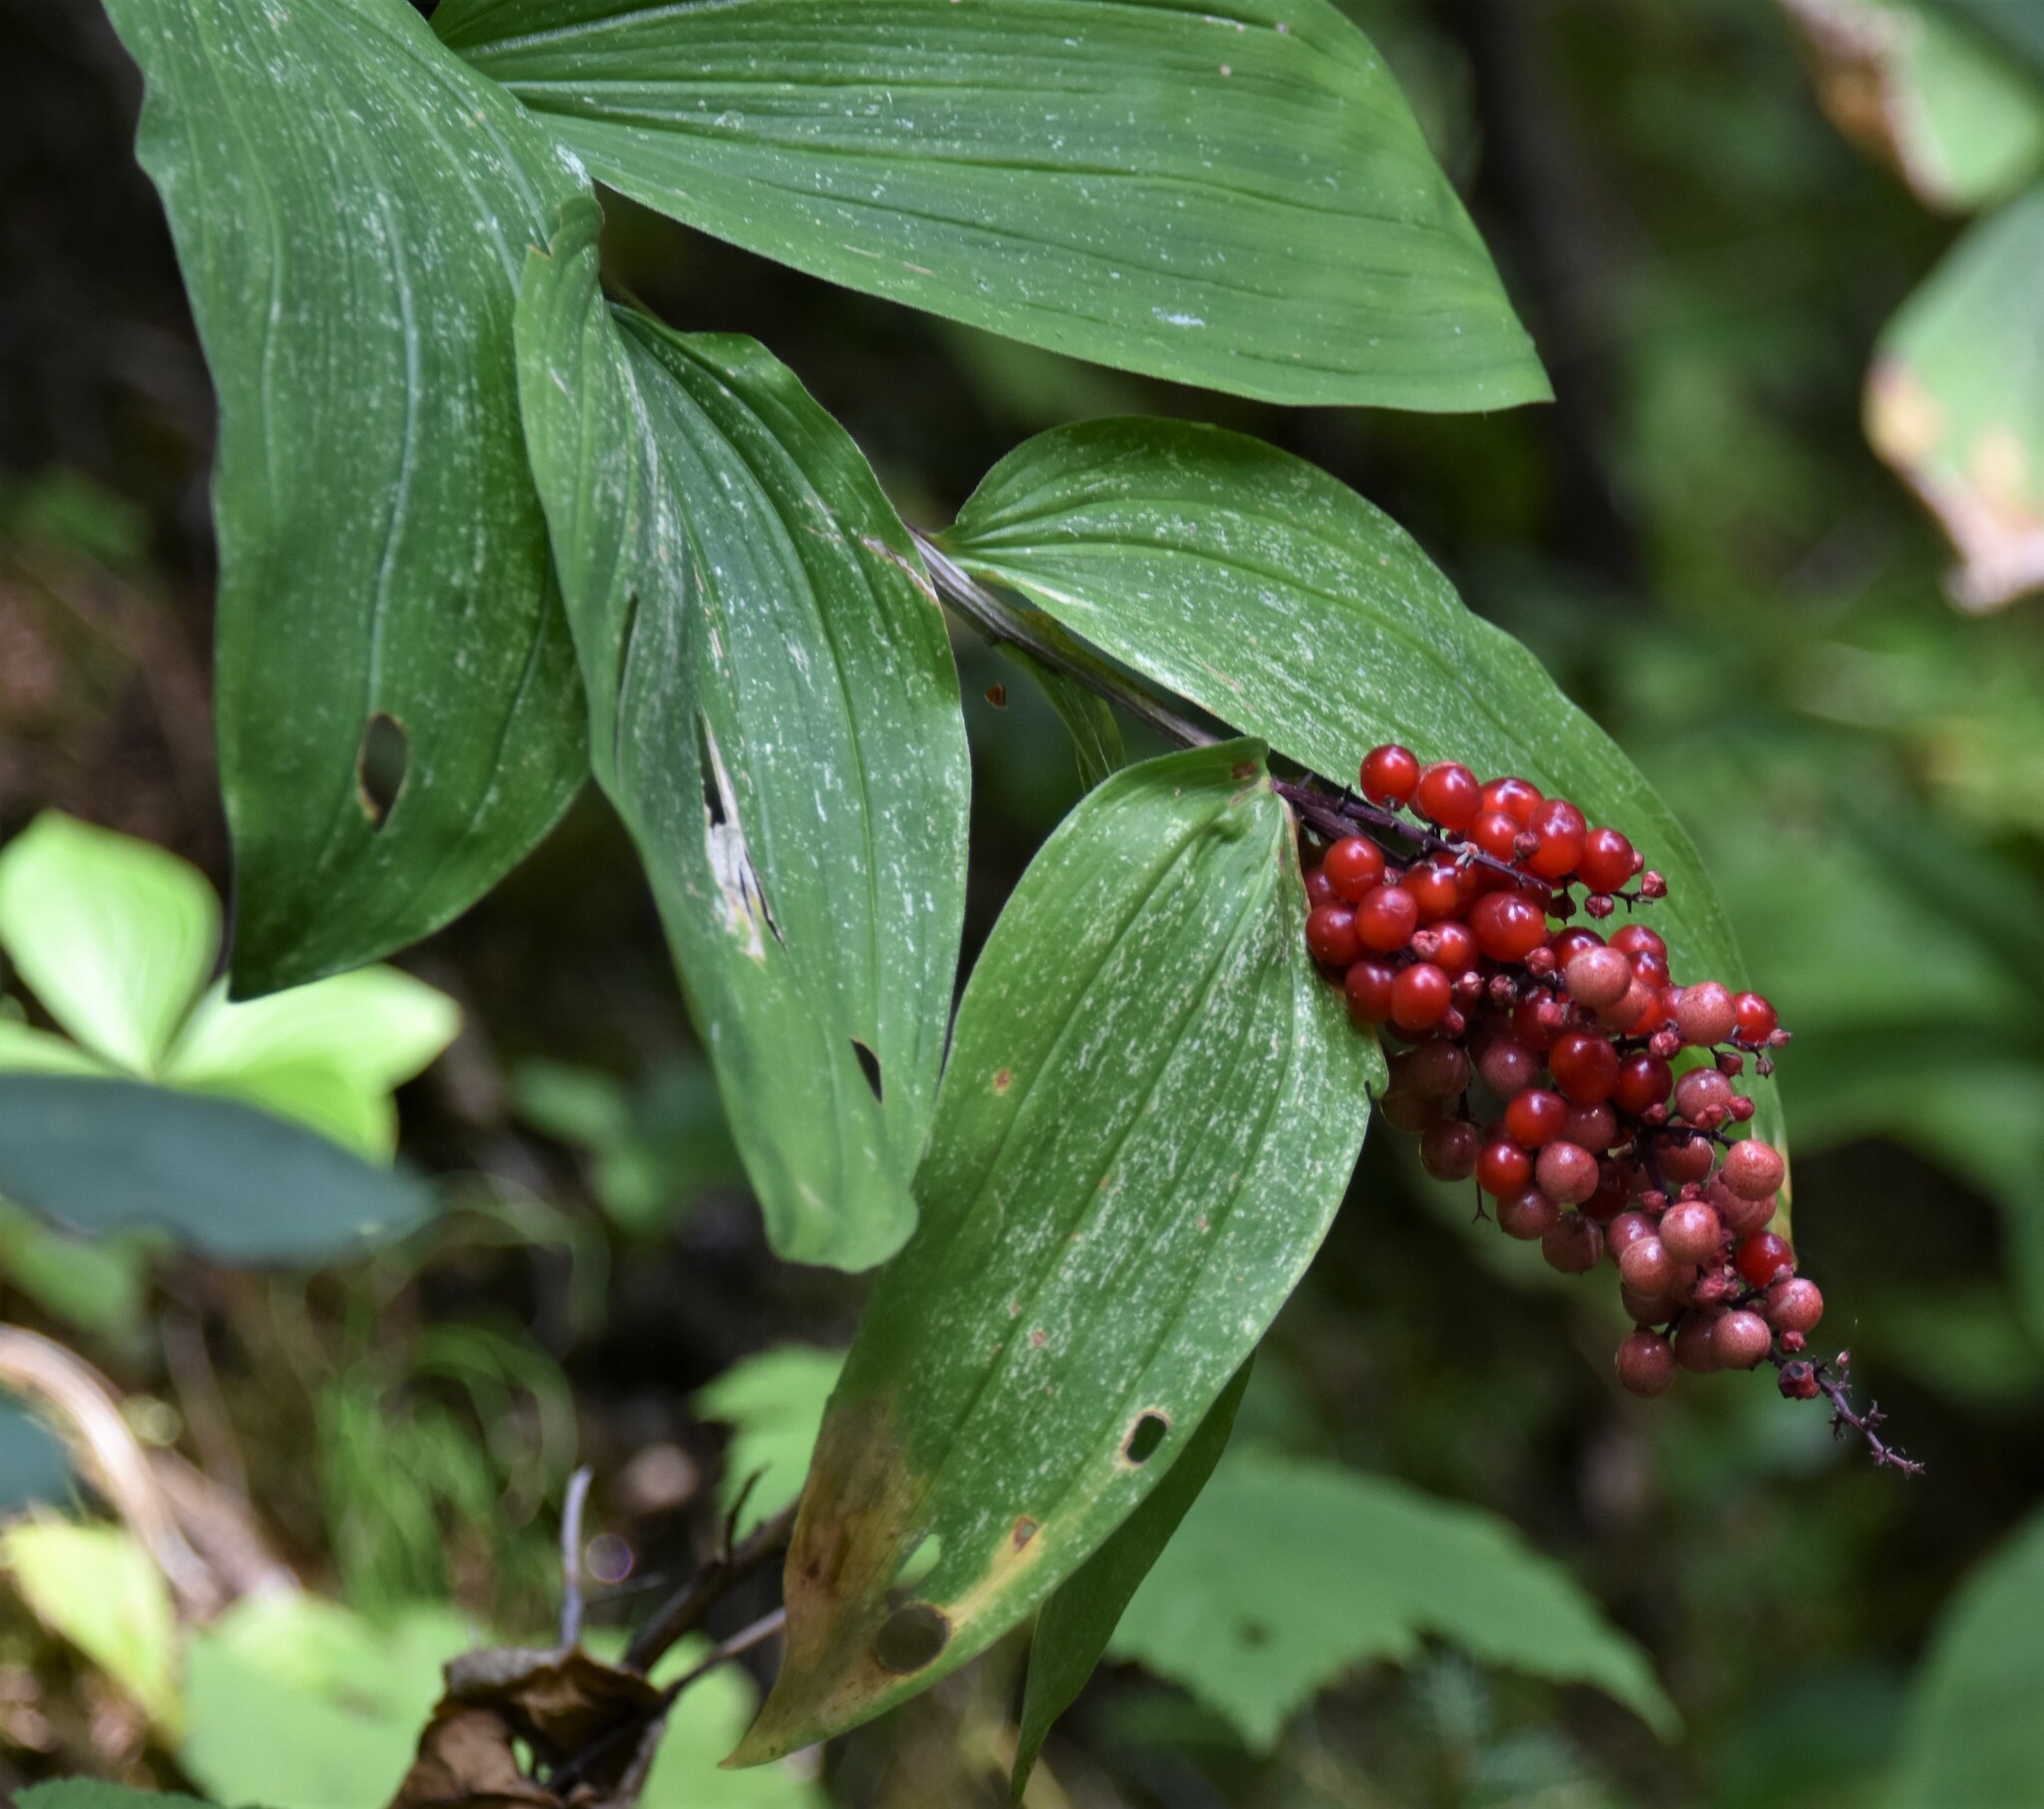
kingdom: Plantae
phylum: Tracheophyta
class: Liliopsida
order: Asparagales
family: Asparagaceae
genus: Maianthemum
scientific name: Maianthemum racemosum
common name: False spikenard
